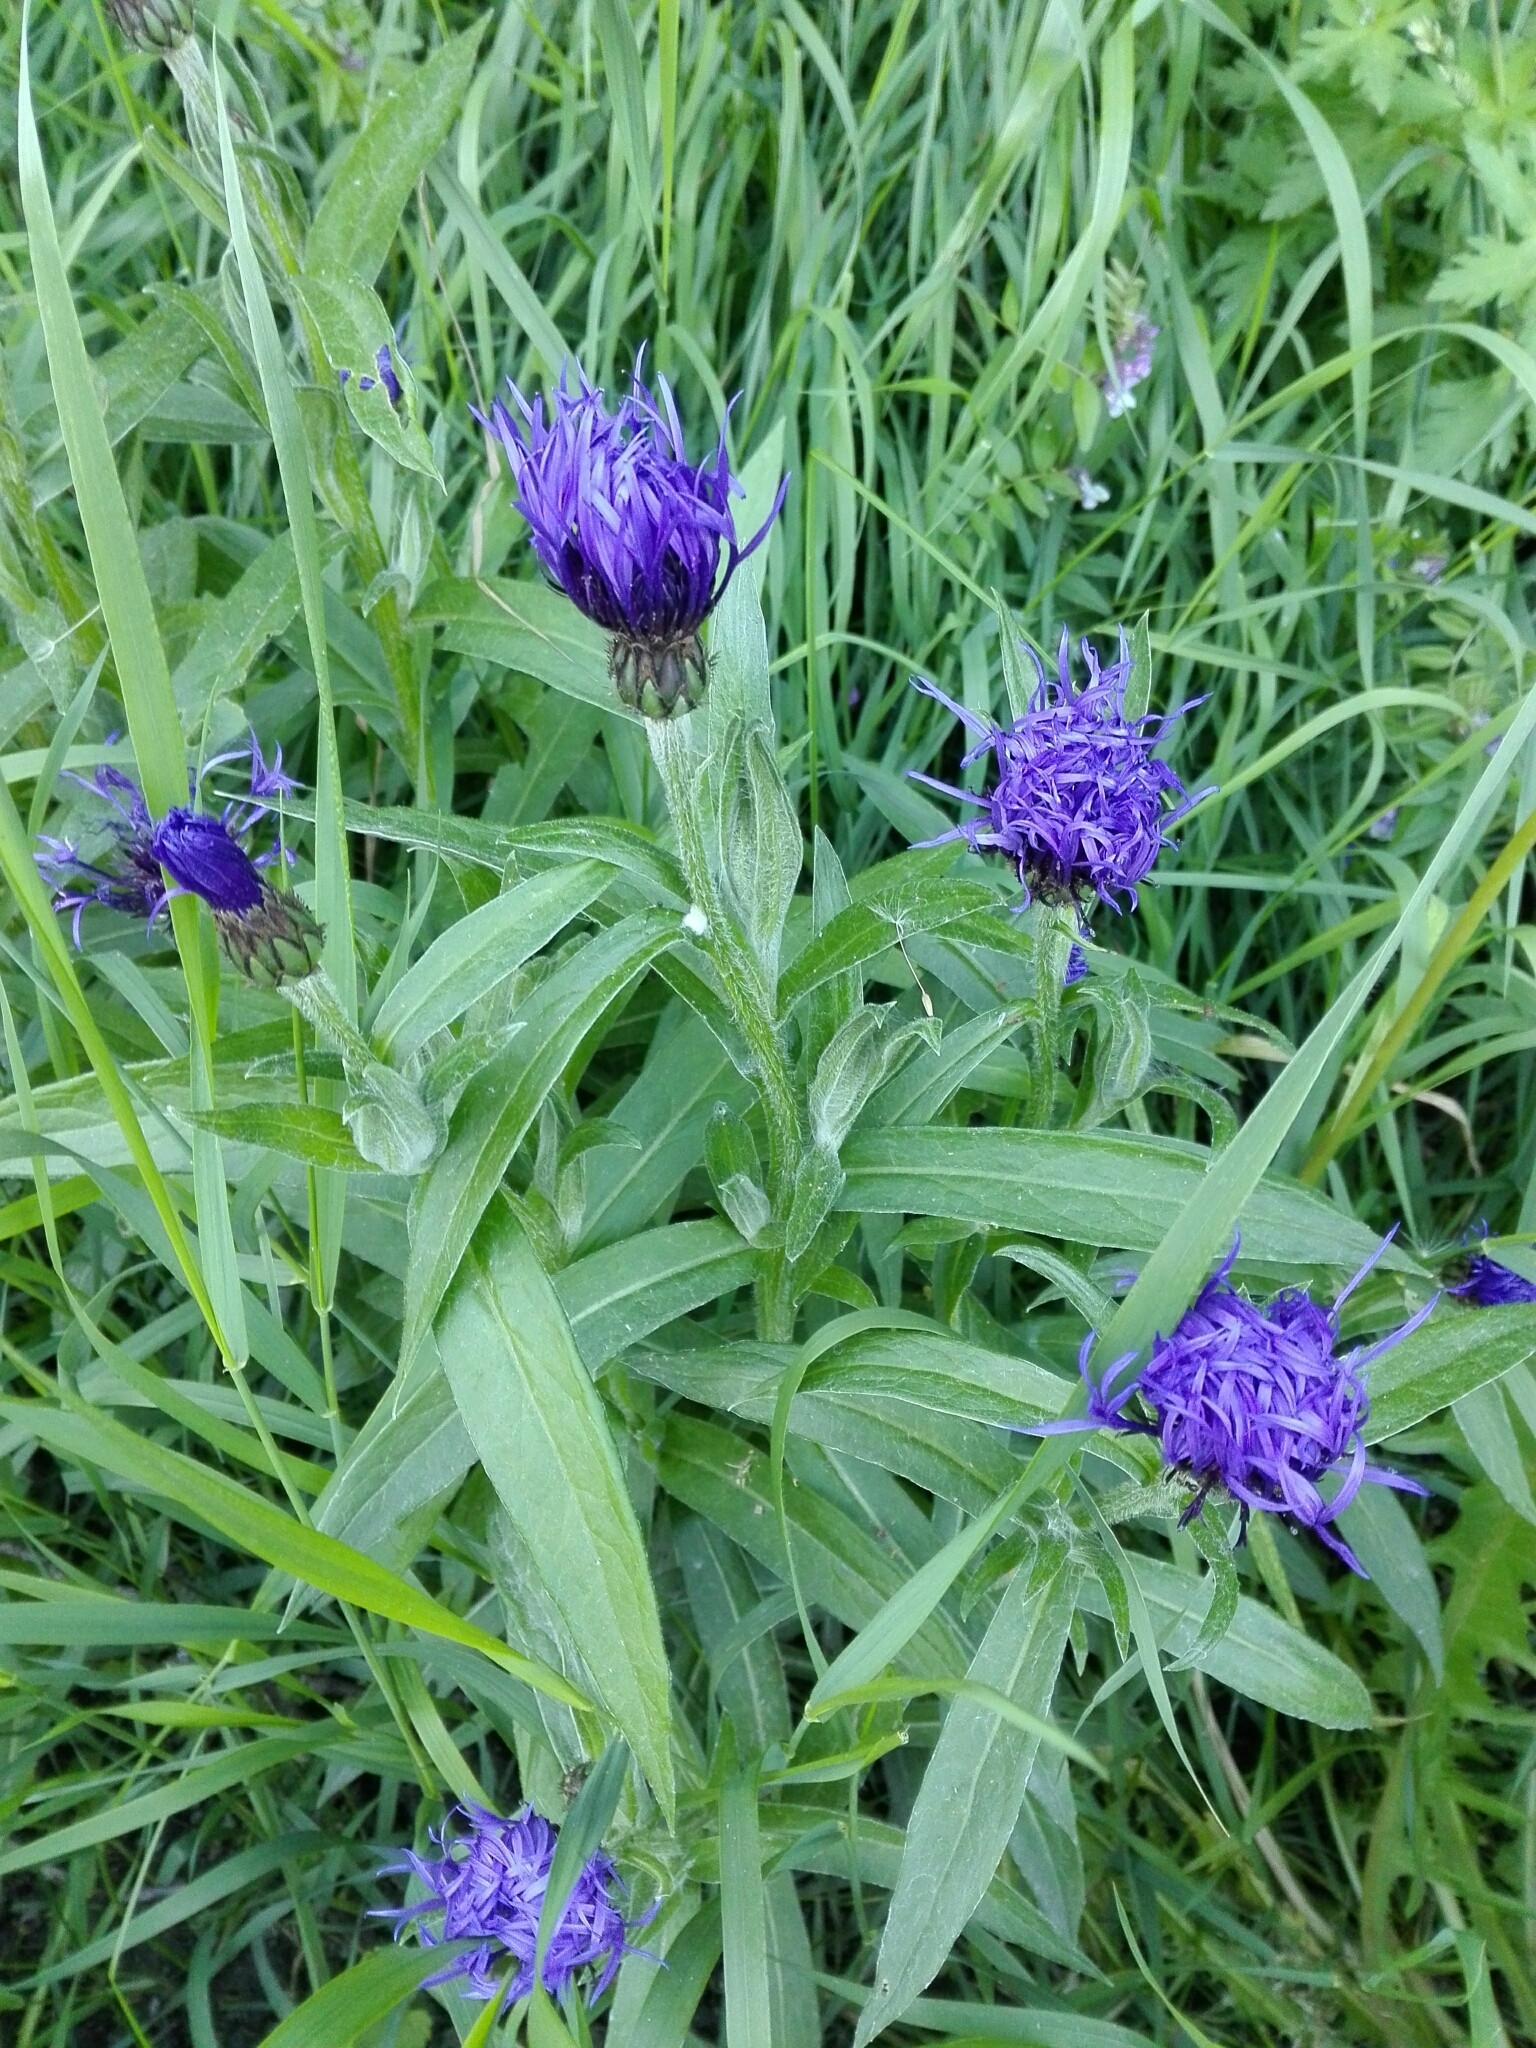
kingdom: Plantae
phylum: Tracheophyta
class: Magnoliopsida
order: Asterales
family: Asteraceae
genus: Centaurea
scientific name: Centaurea montana
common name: Perennial cornflower
